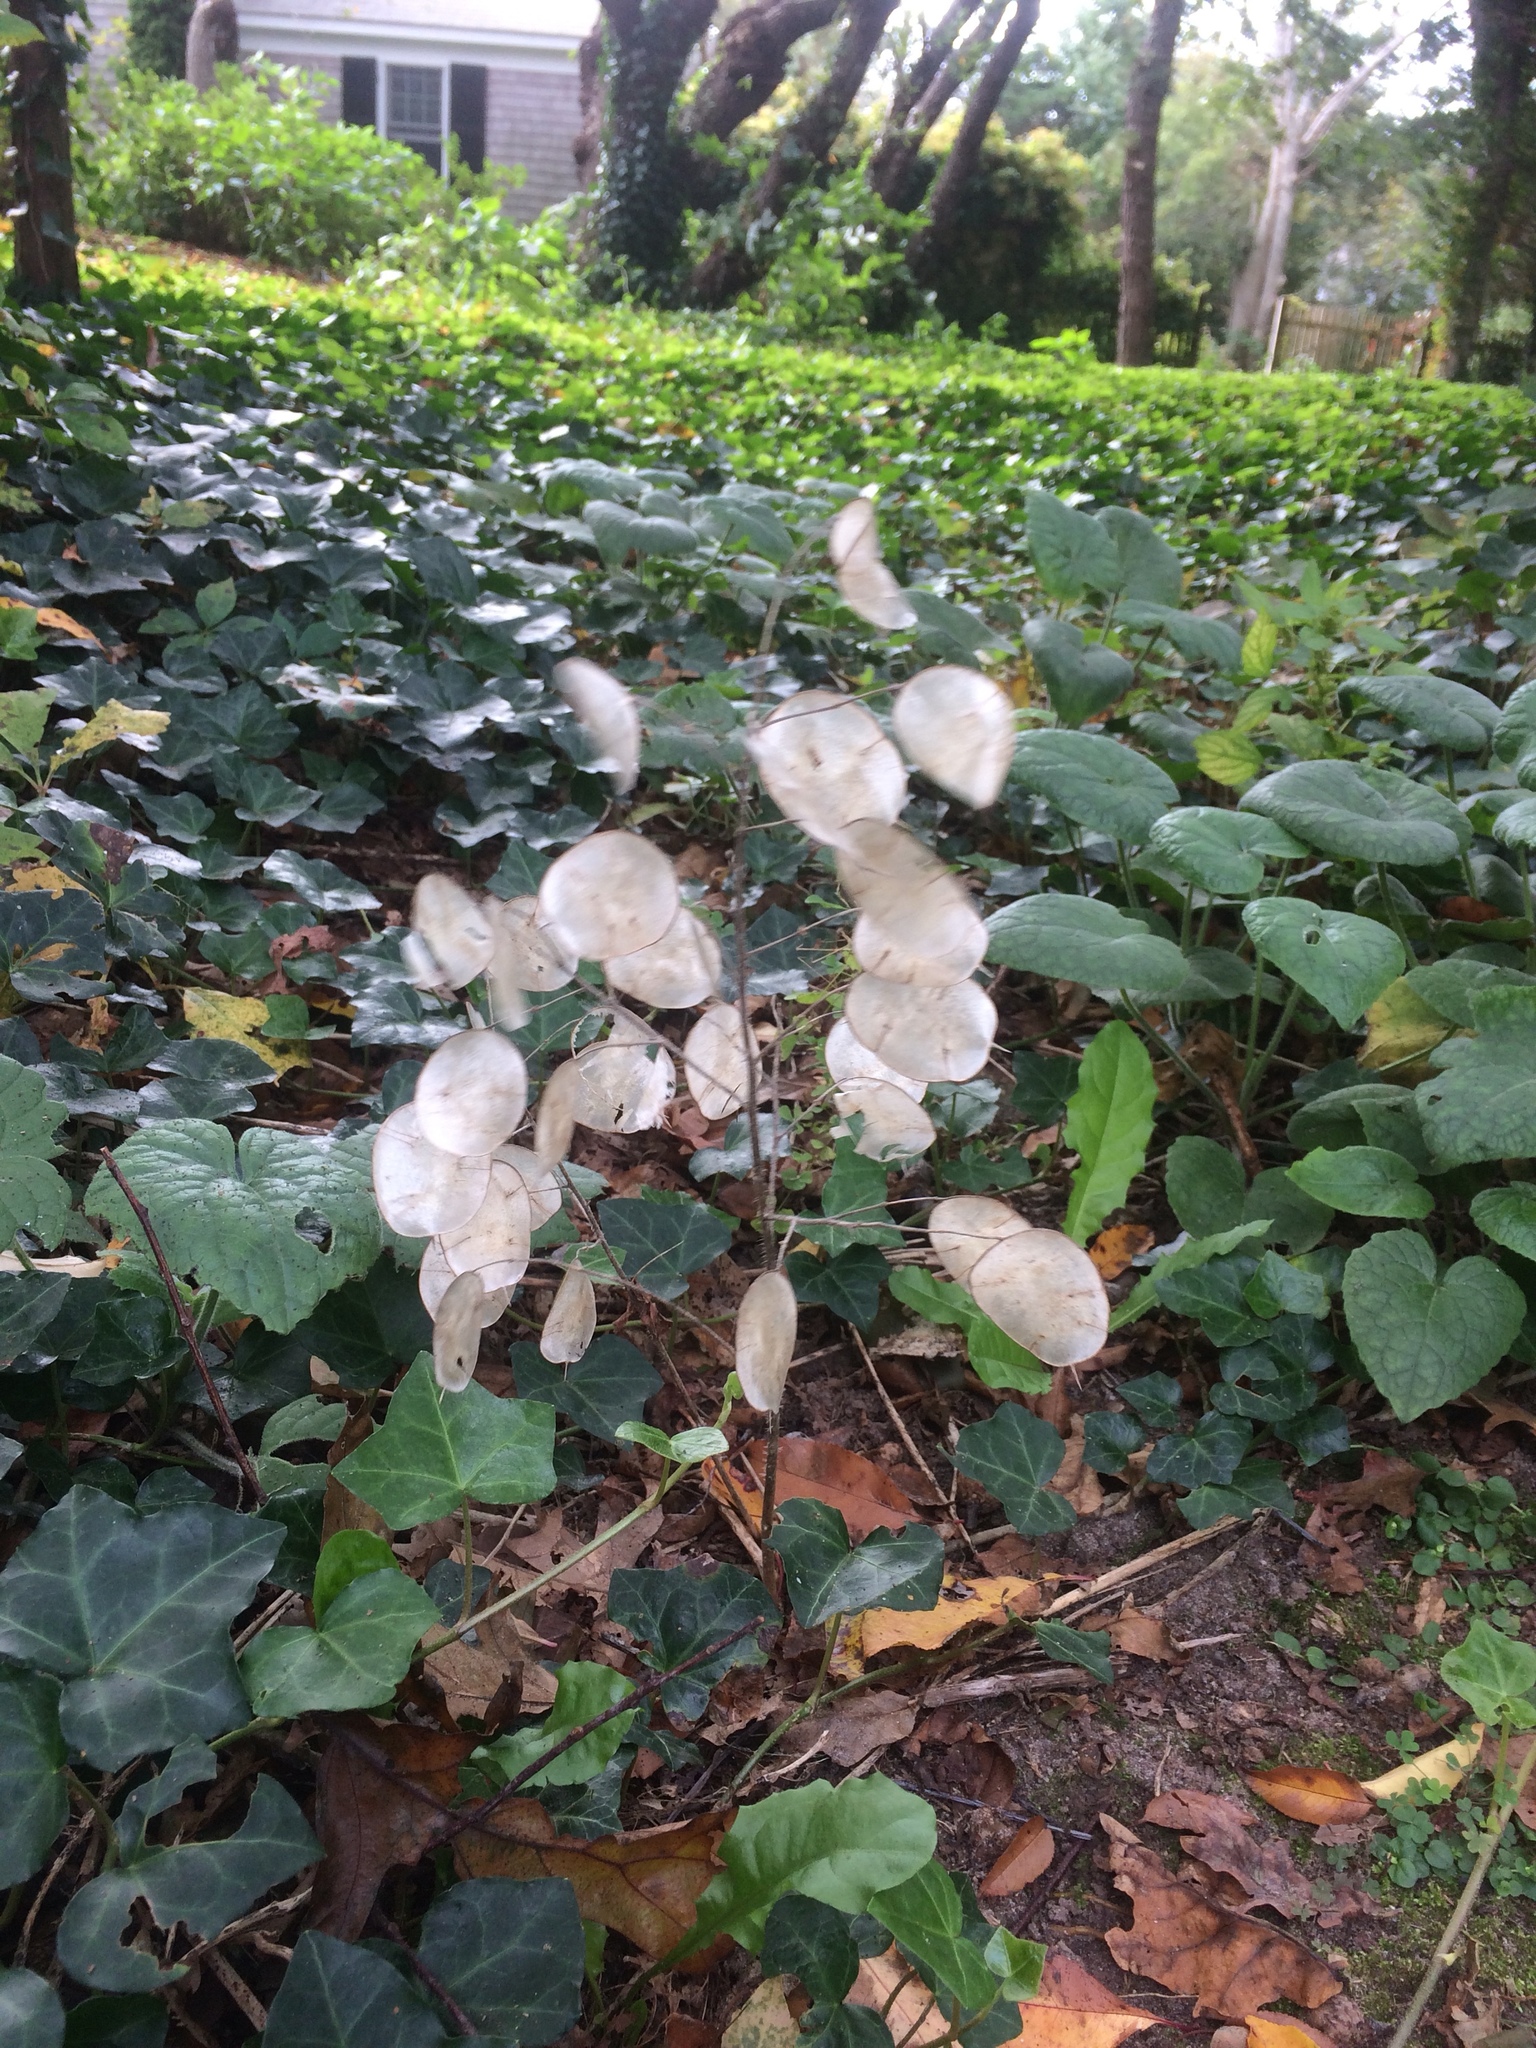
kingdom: Plantae
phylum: Tracheophyta
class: Magnoliopsida
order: Brassicales
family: Brassicaceae
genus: Lunaria
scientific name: Lunaria annua
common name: Honesty
